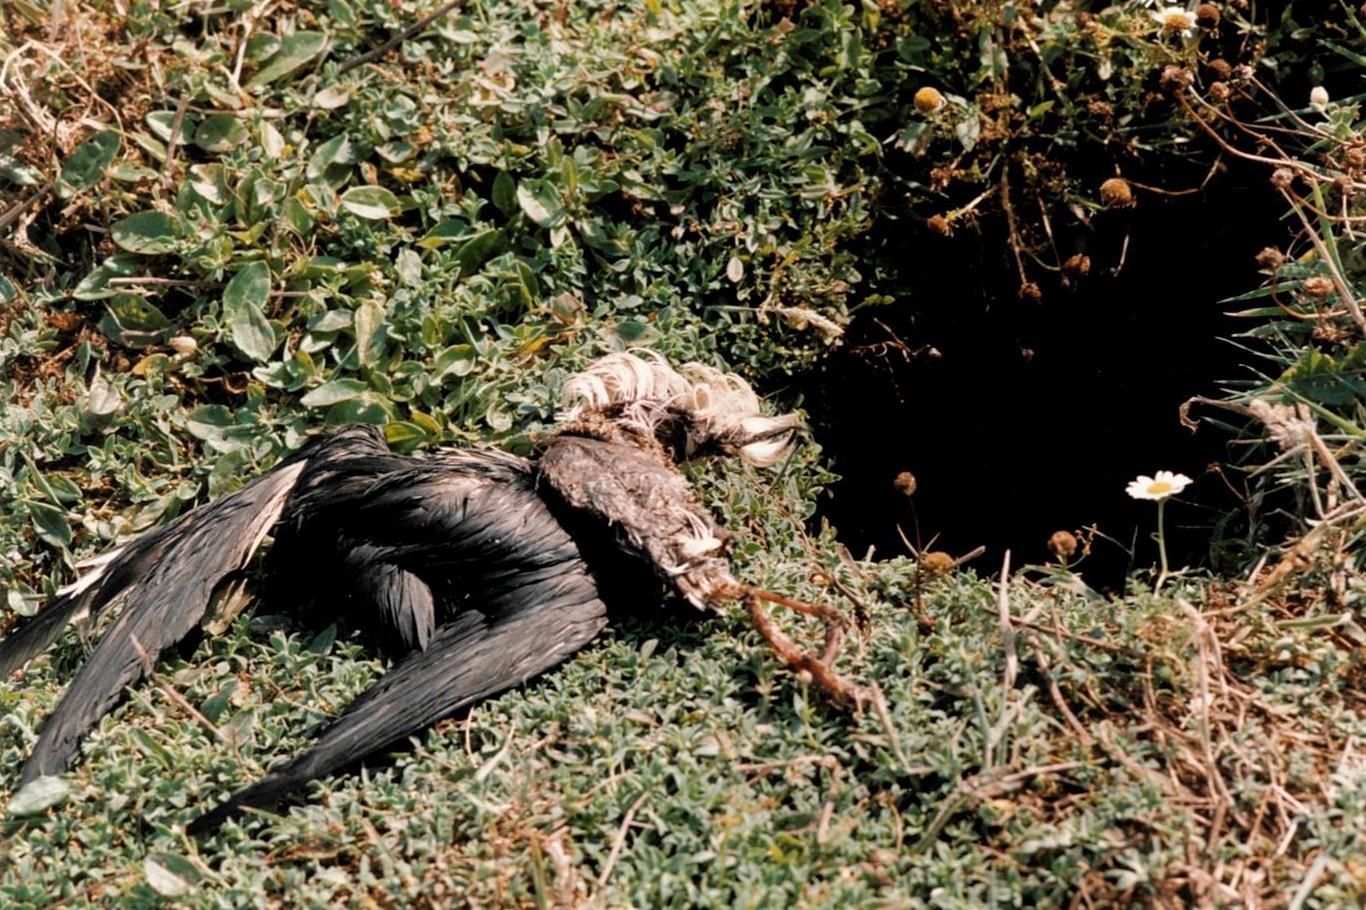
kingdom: Animalia
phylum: Chordata
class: Aves
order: Procellariiformes
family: Procellariidae
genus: Puffinus
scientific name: Puffinus puffinus
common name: Manx shearwater
